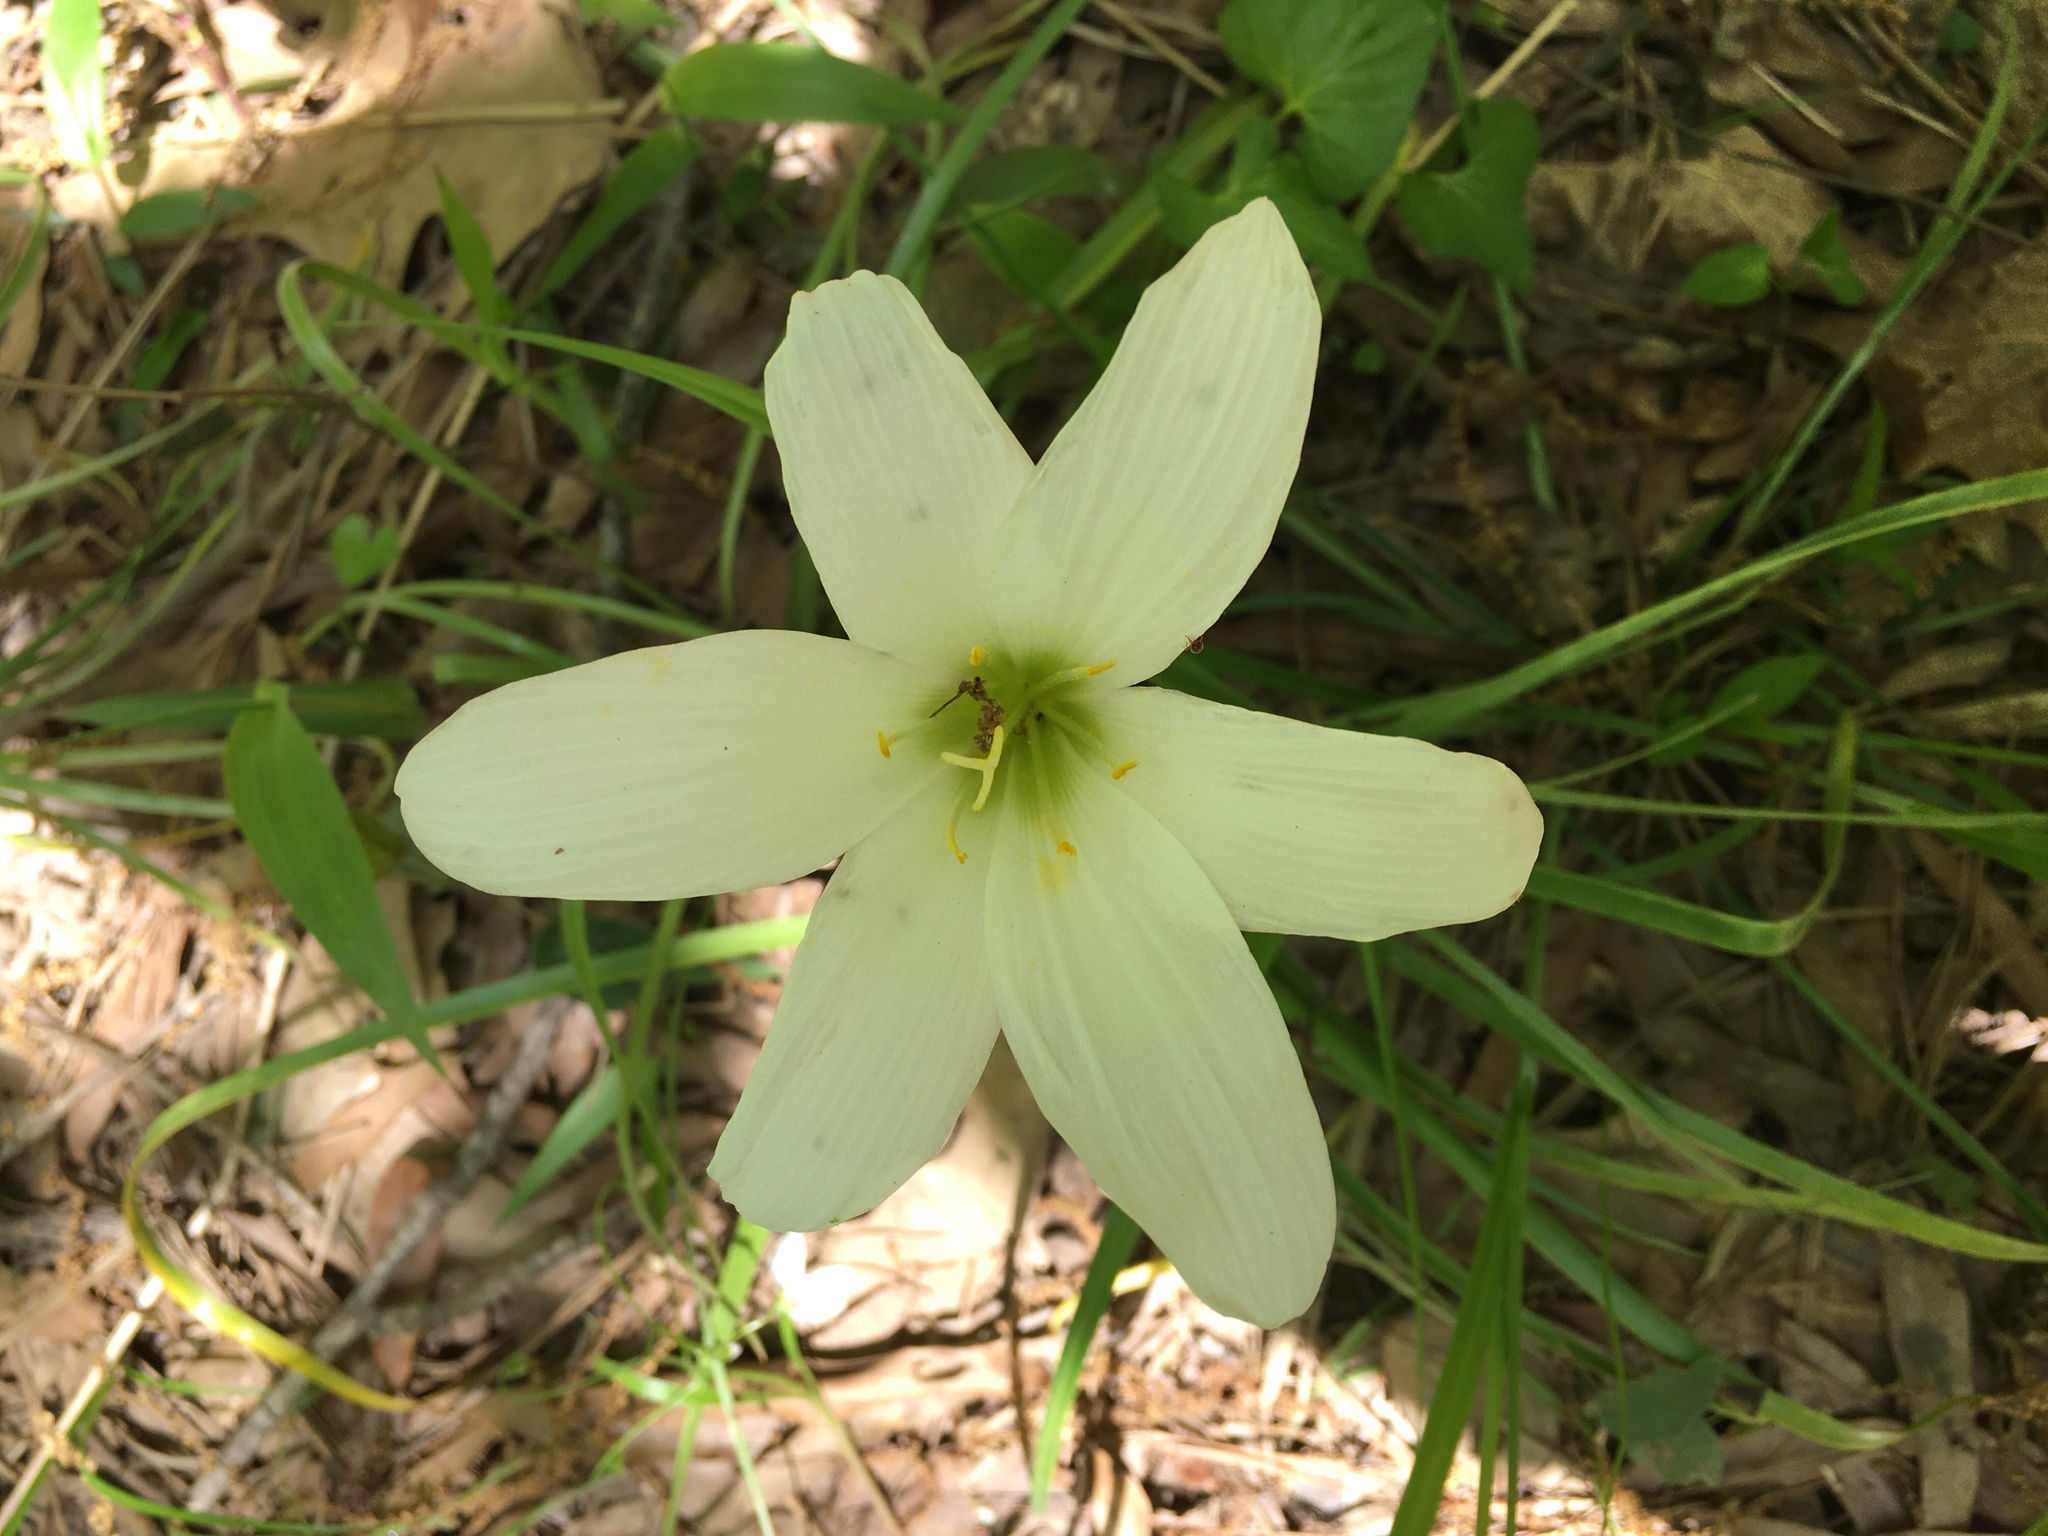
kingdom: Plantae
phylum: Tracheophyta
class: Liliopsida
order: Asparagales
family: Amaryllidaceae
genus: Zephyranthes
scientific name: Zephyranthes atamasco
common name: Atamasco lily
